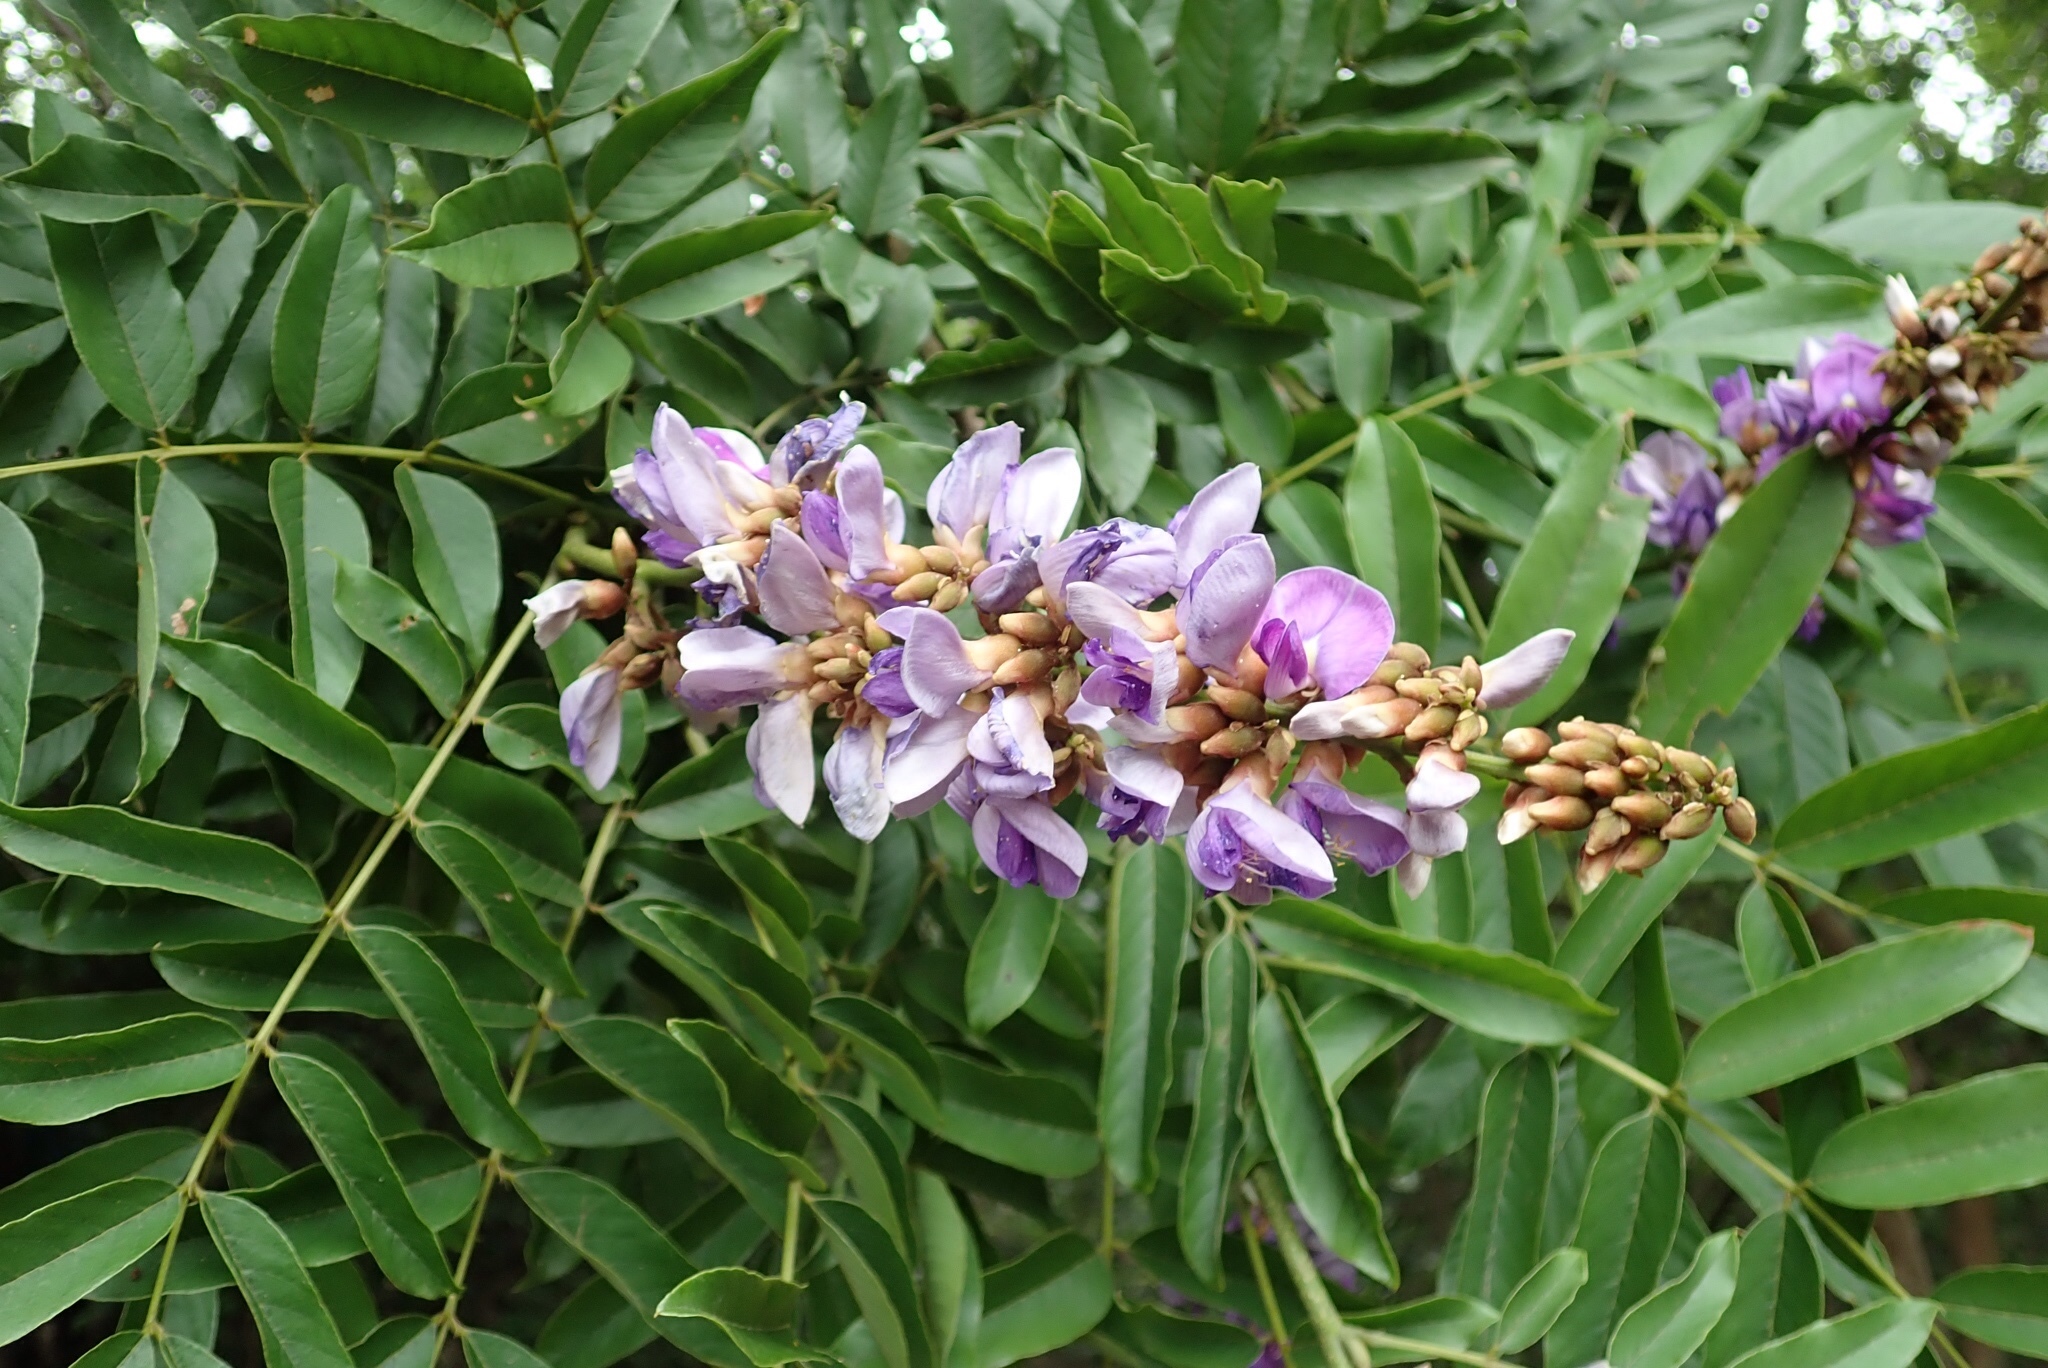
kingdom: Plantae
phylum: Tracheophyta
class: Magnoliopsida
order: Fabales
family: Fabaceae
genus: Millettia
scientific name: Millettia grandis
